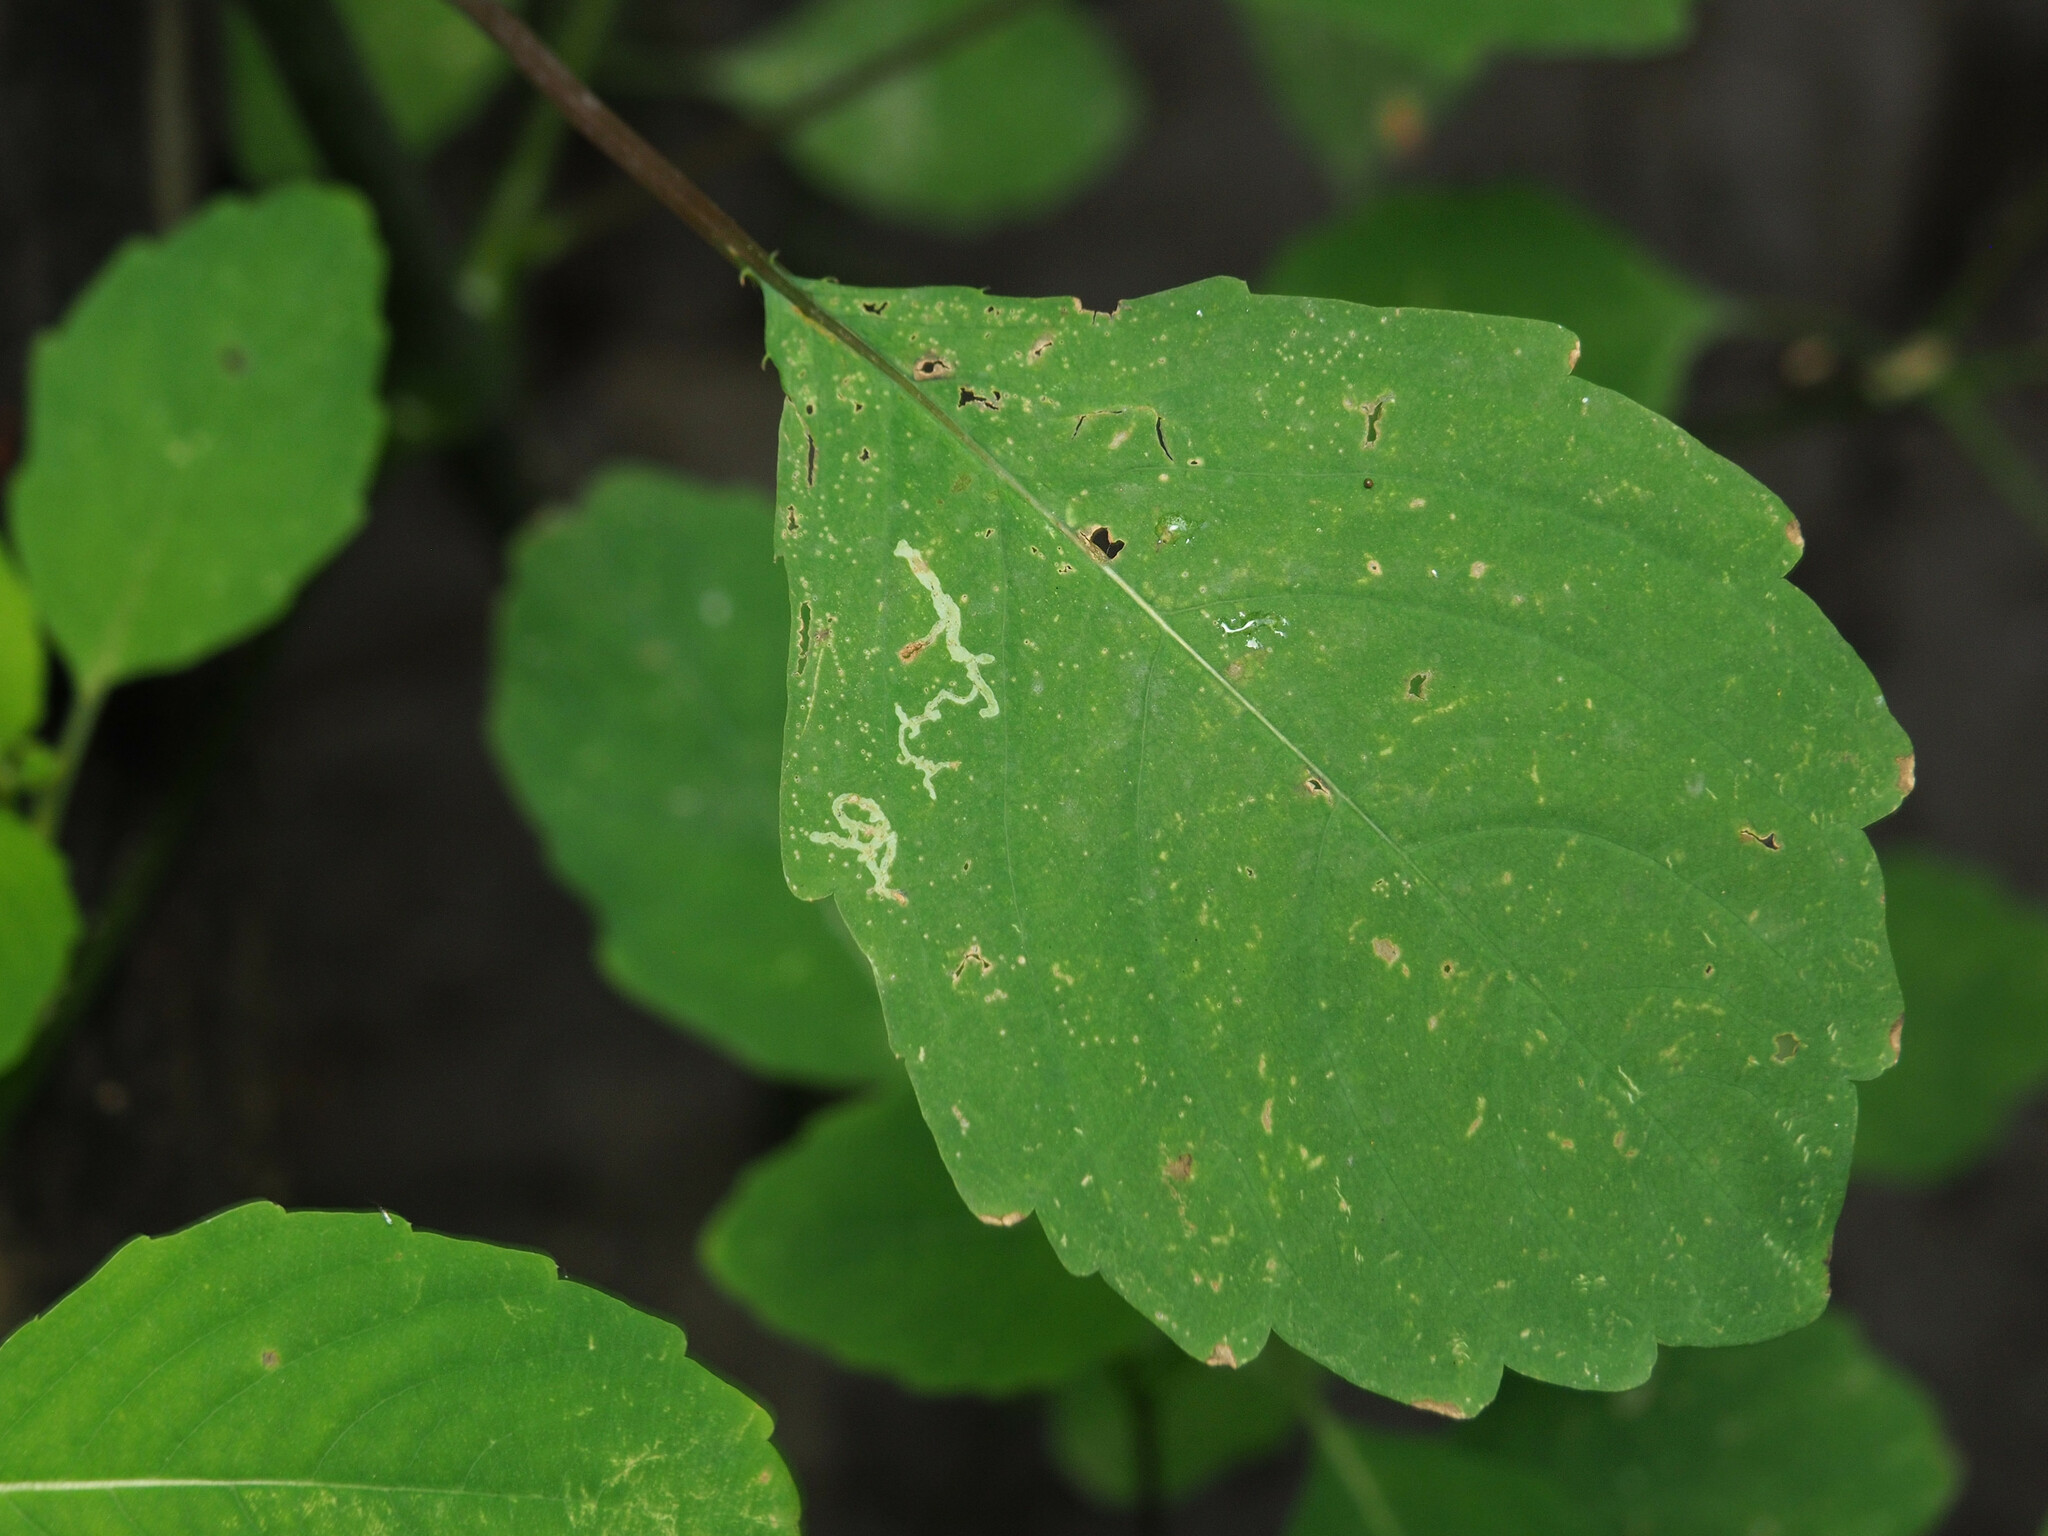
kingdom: Animalia
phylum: Arthropoda
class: Insecta
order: Diptera
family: Agromyzidae
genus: Phytoliriomyza
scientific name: Phytoliriomyza melampyga
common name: Jewelweed leaf-miner fly
